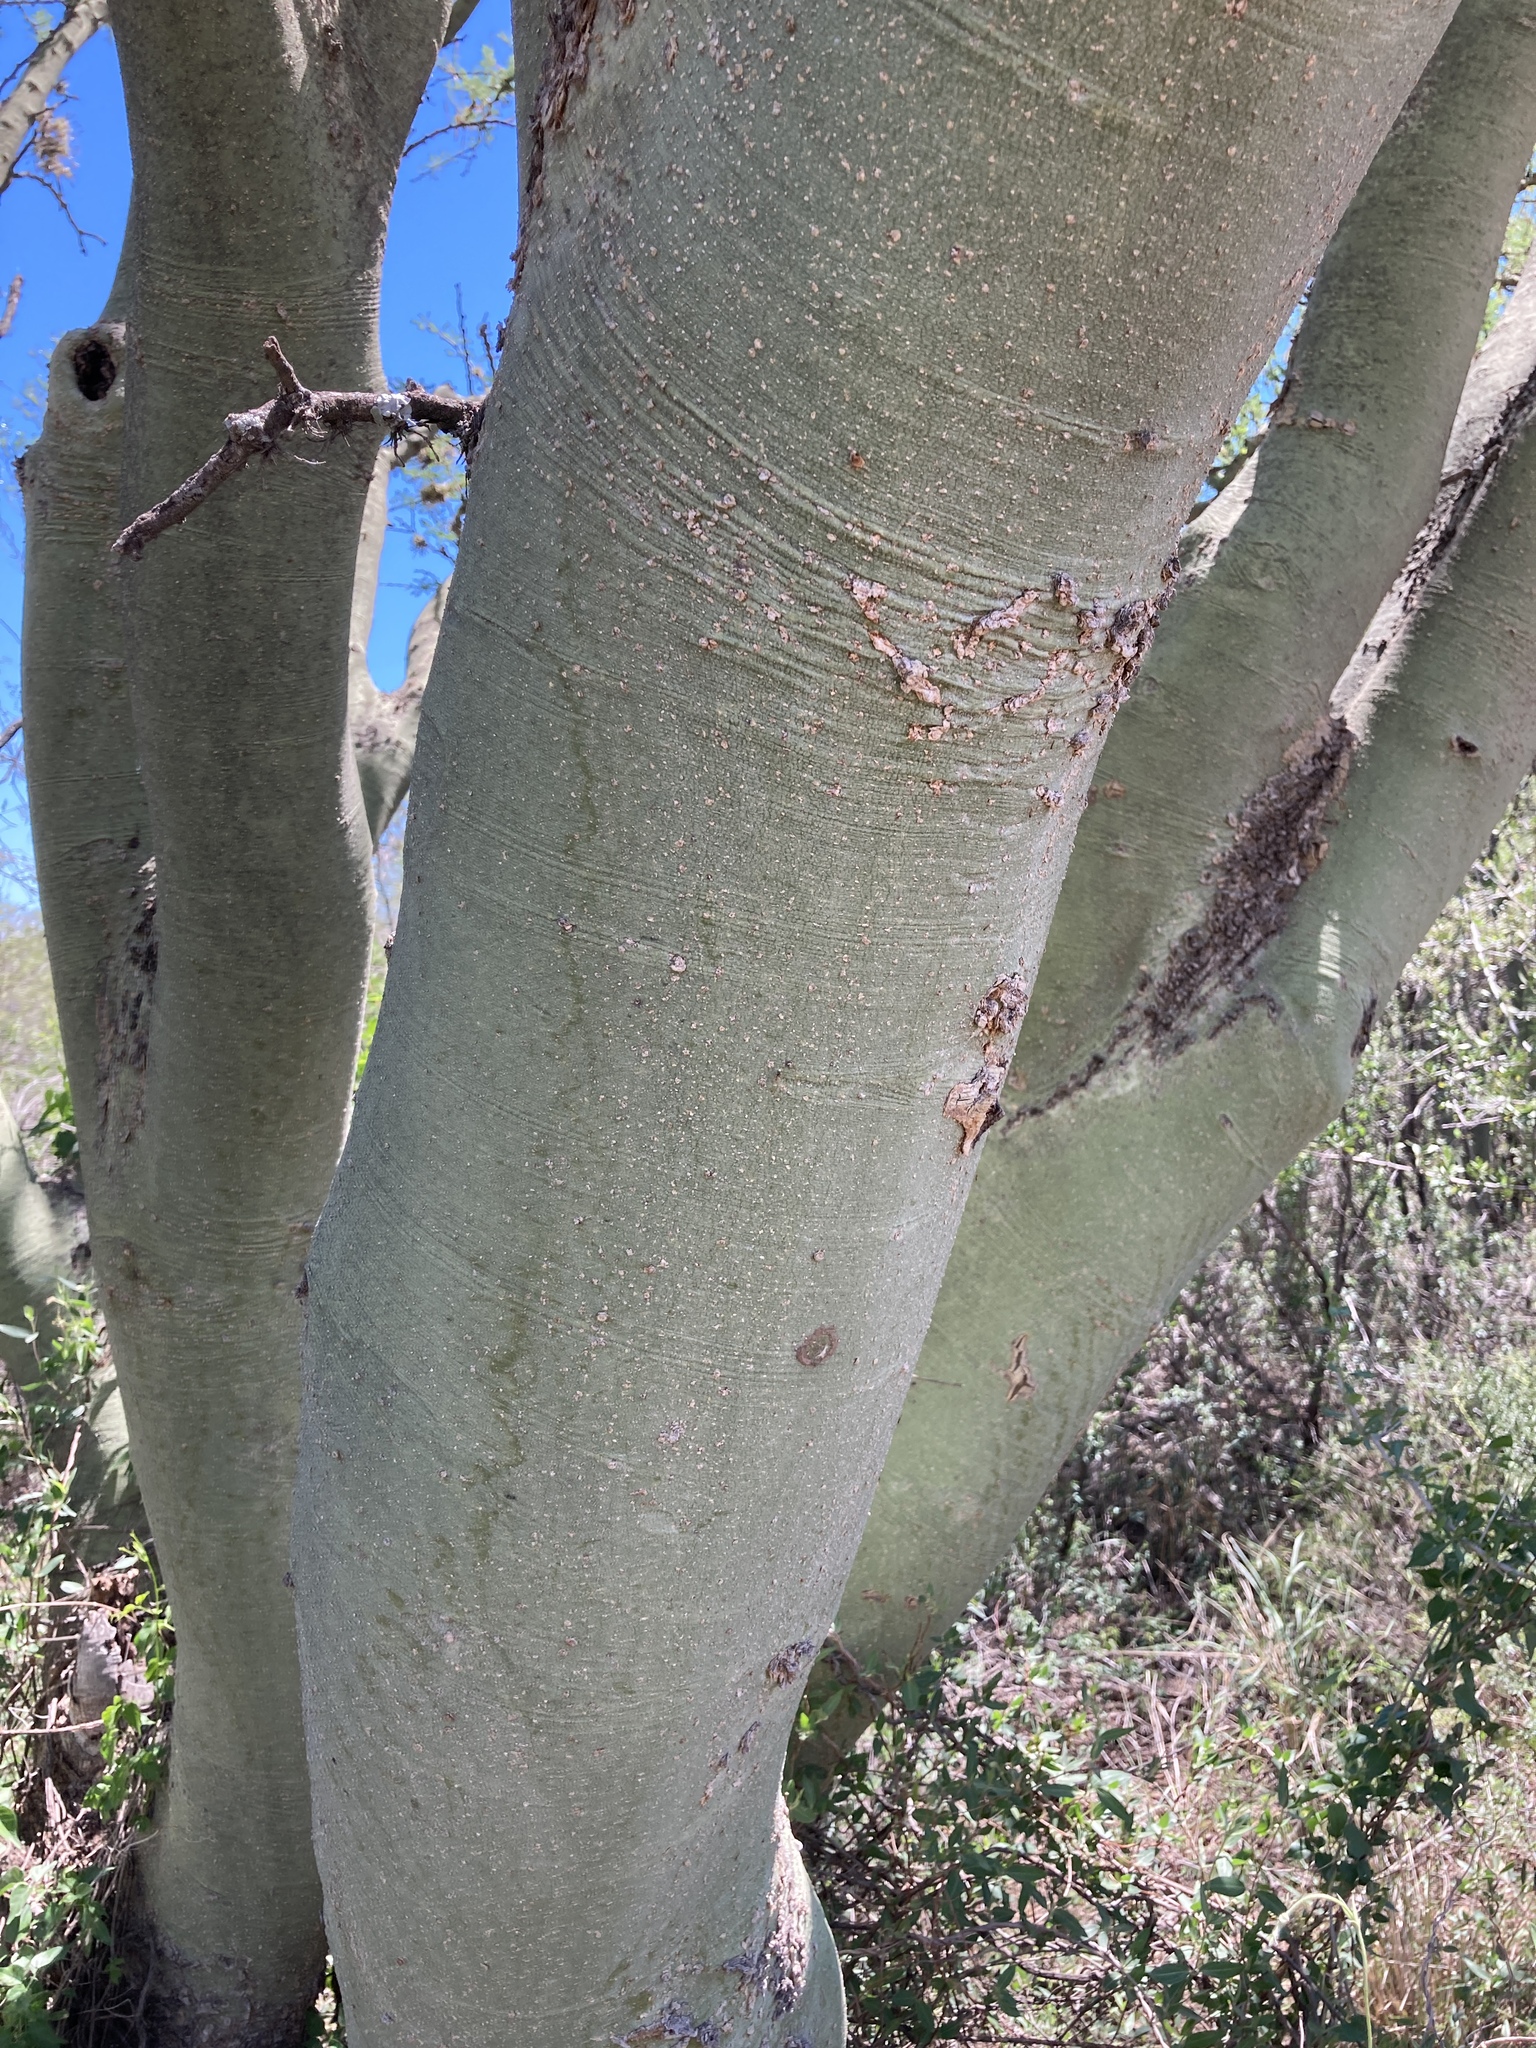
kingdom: Plantae
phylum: Tracheophyta
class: Magnoliopsida
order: Fabales
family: Fabaceae
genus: Parkinsonia
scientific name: Parkinsonia praecox
